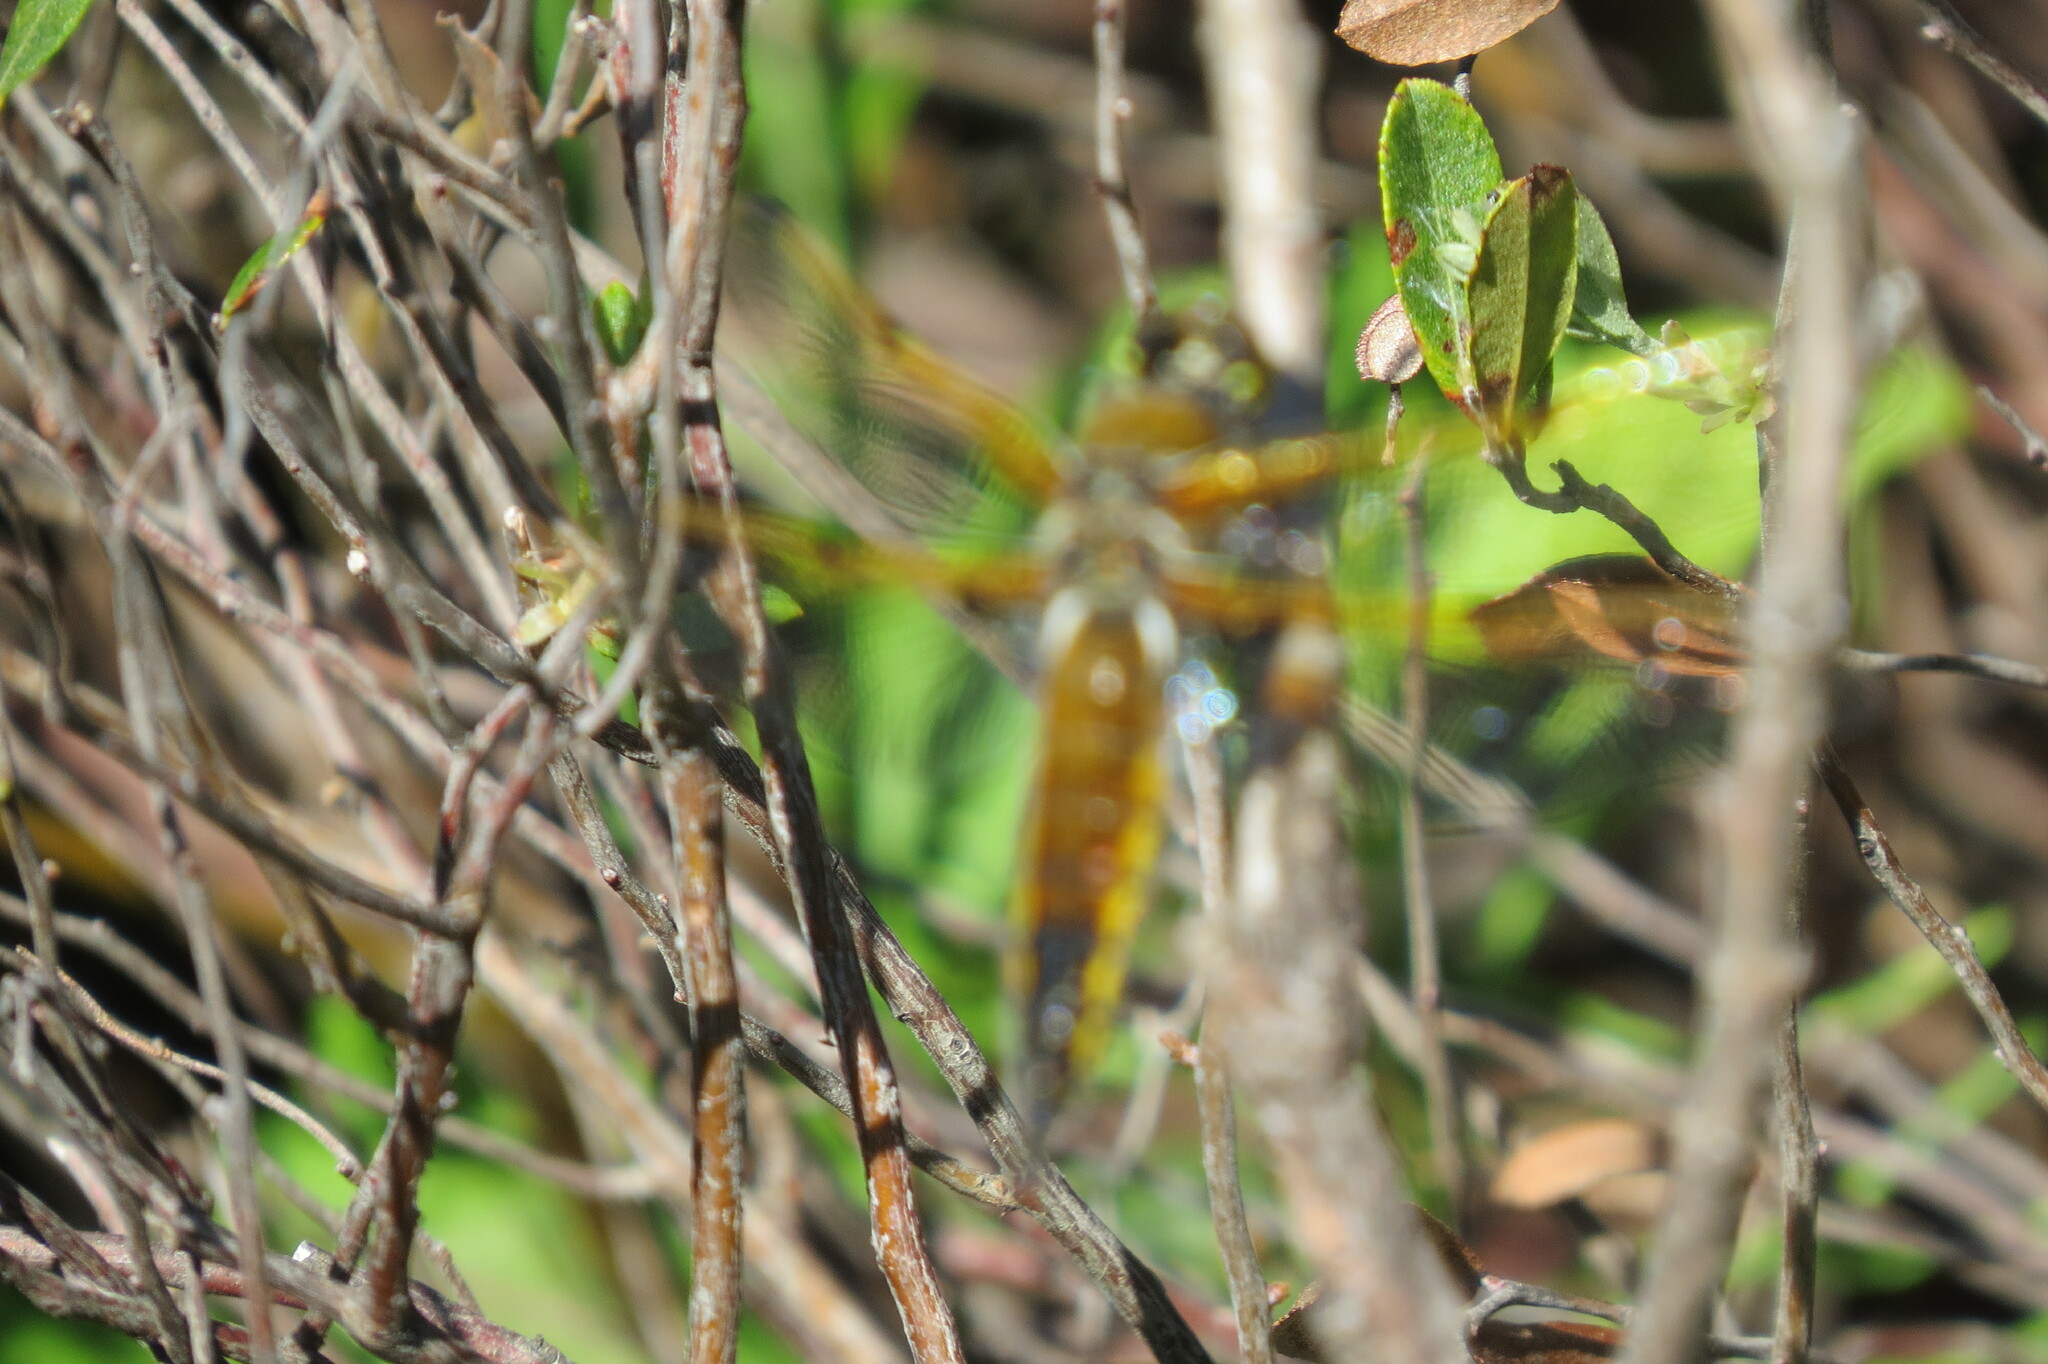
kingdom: Animalia
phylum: Arthropoda
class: Insecta
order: Odonata
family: Libellulidae
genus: Libellula
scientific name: Libellula quadrimaculata
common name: Four-spotted chaser
